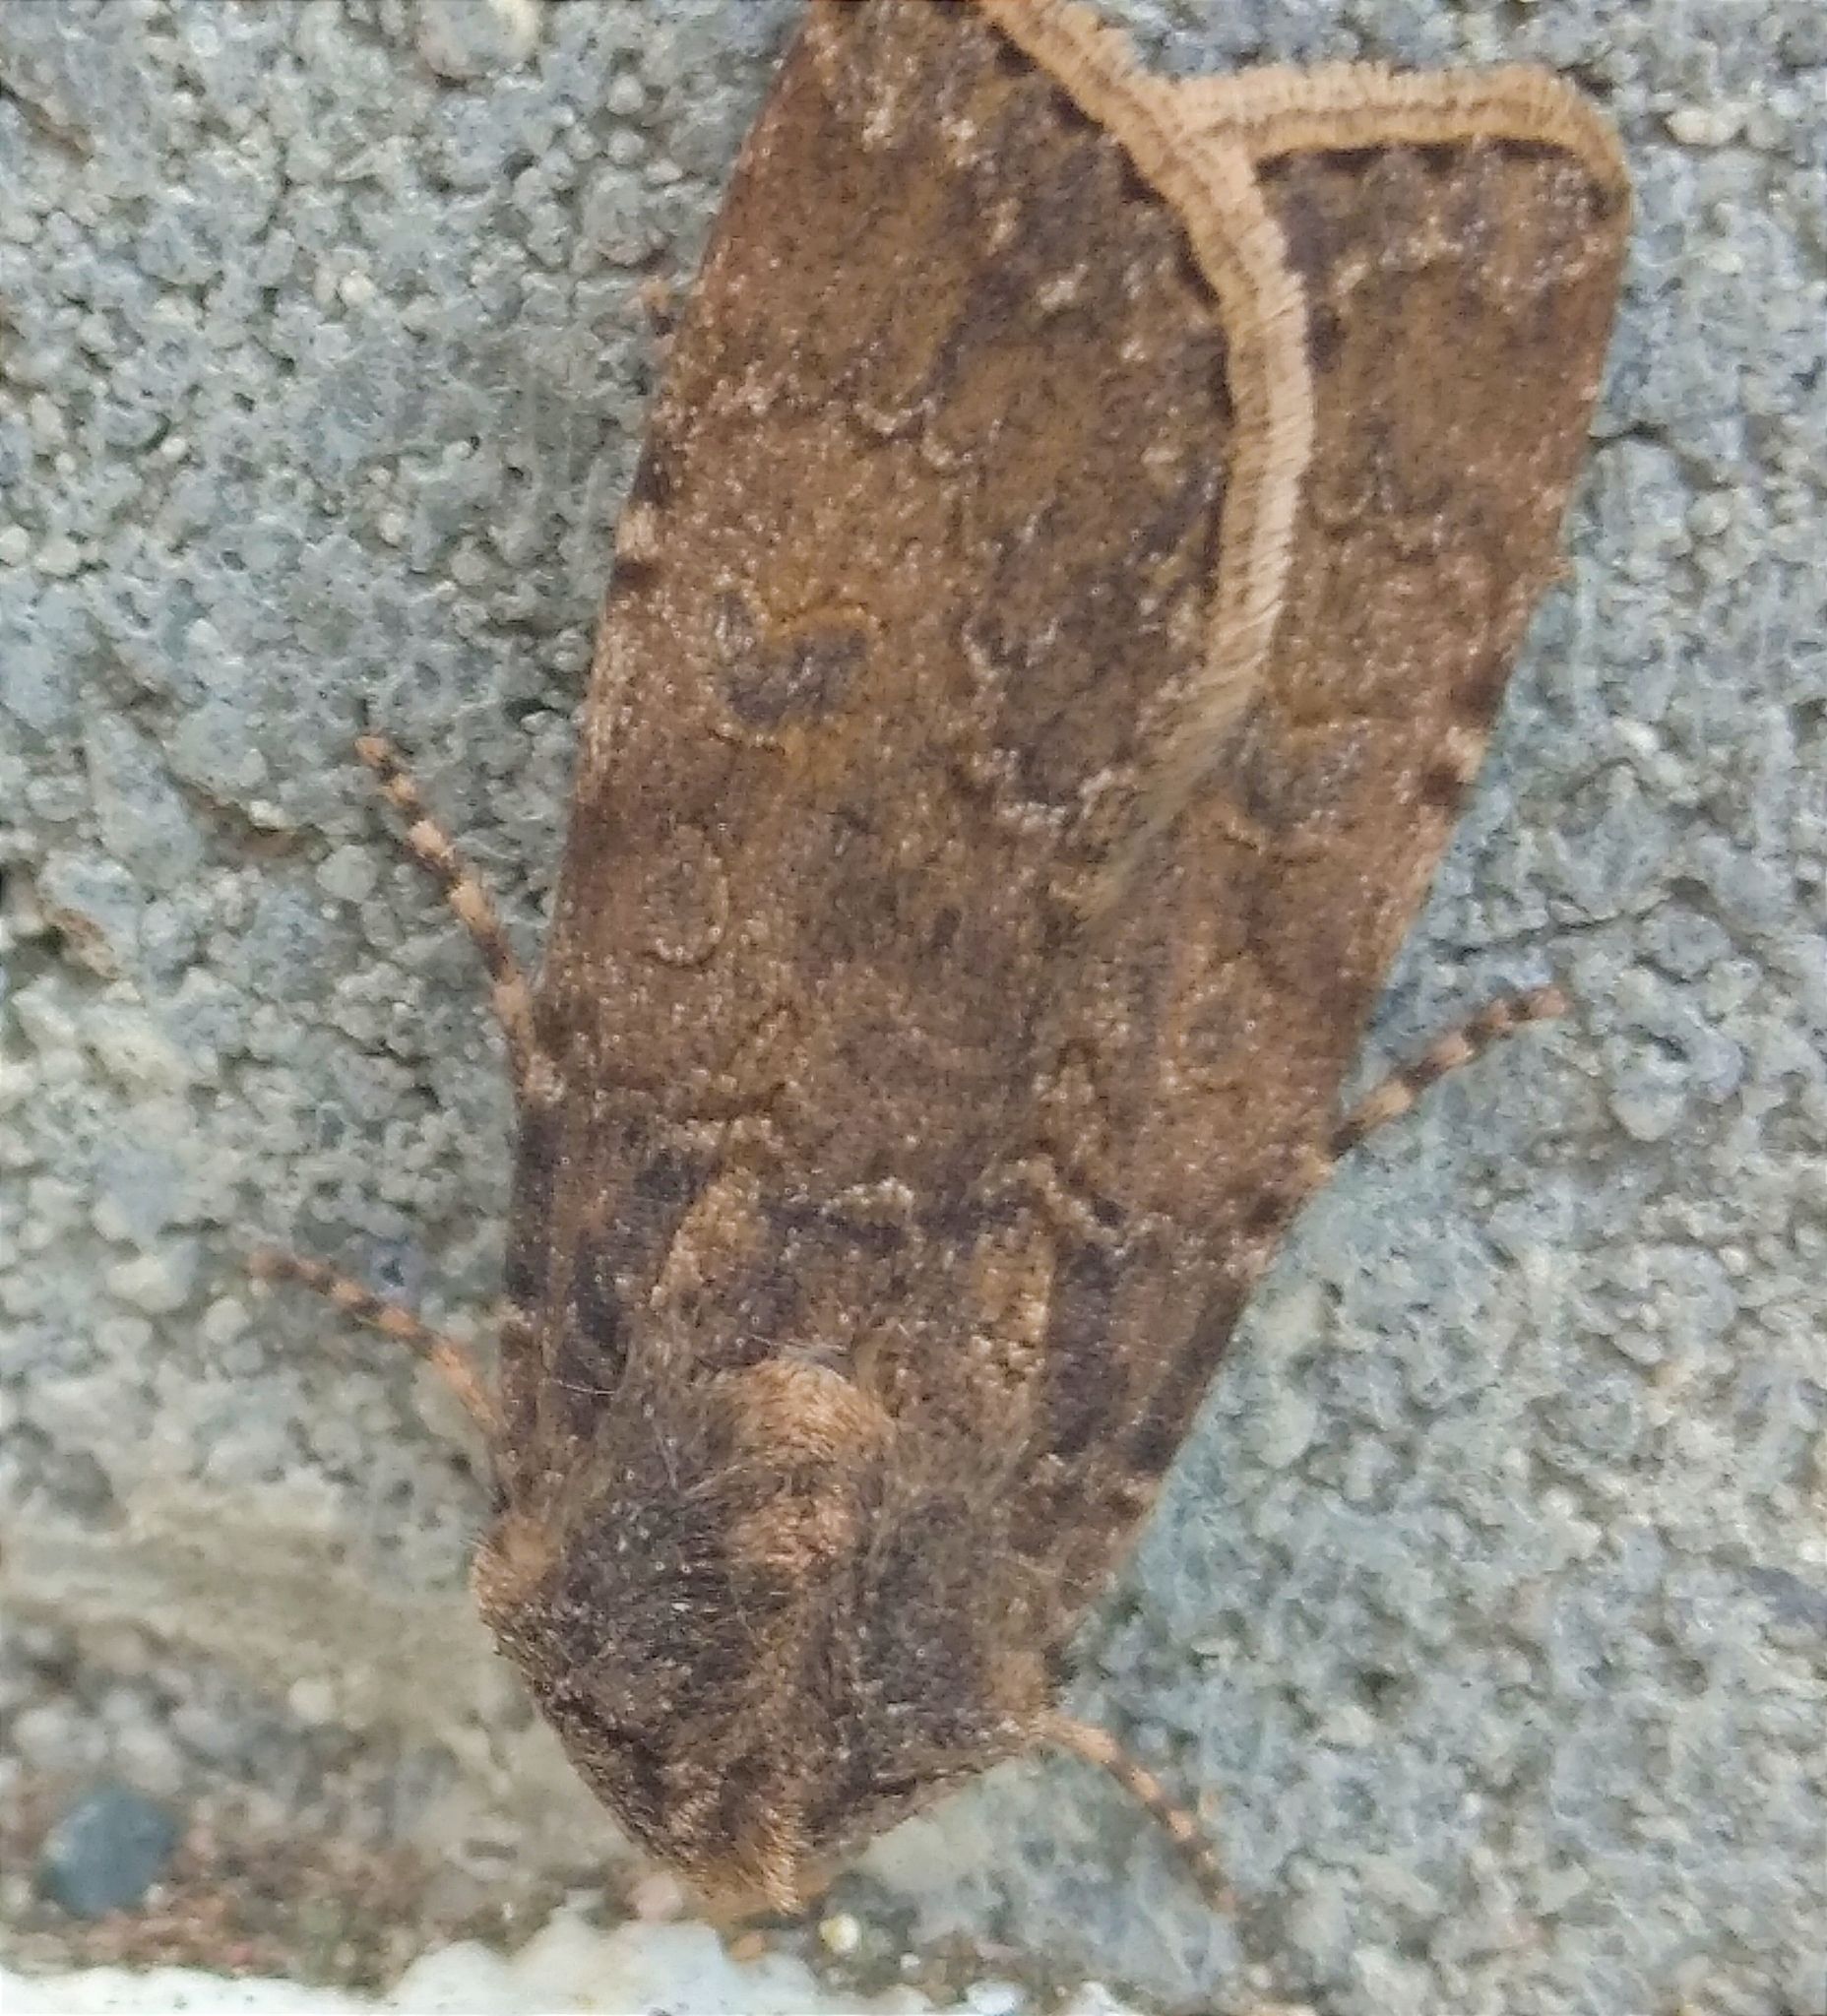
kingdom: Animalia
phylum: Arthropoda
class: Insecta
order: Lepidoptera
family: Noctuidae
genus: Peridroma
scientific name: Peridroma saucia
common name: Pearly underwing
